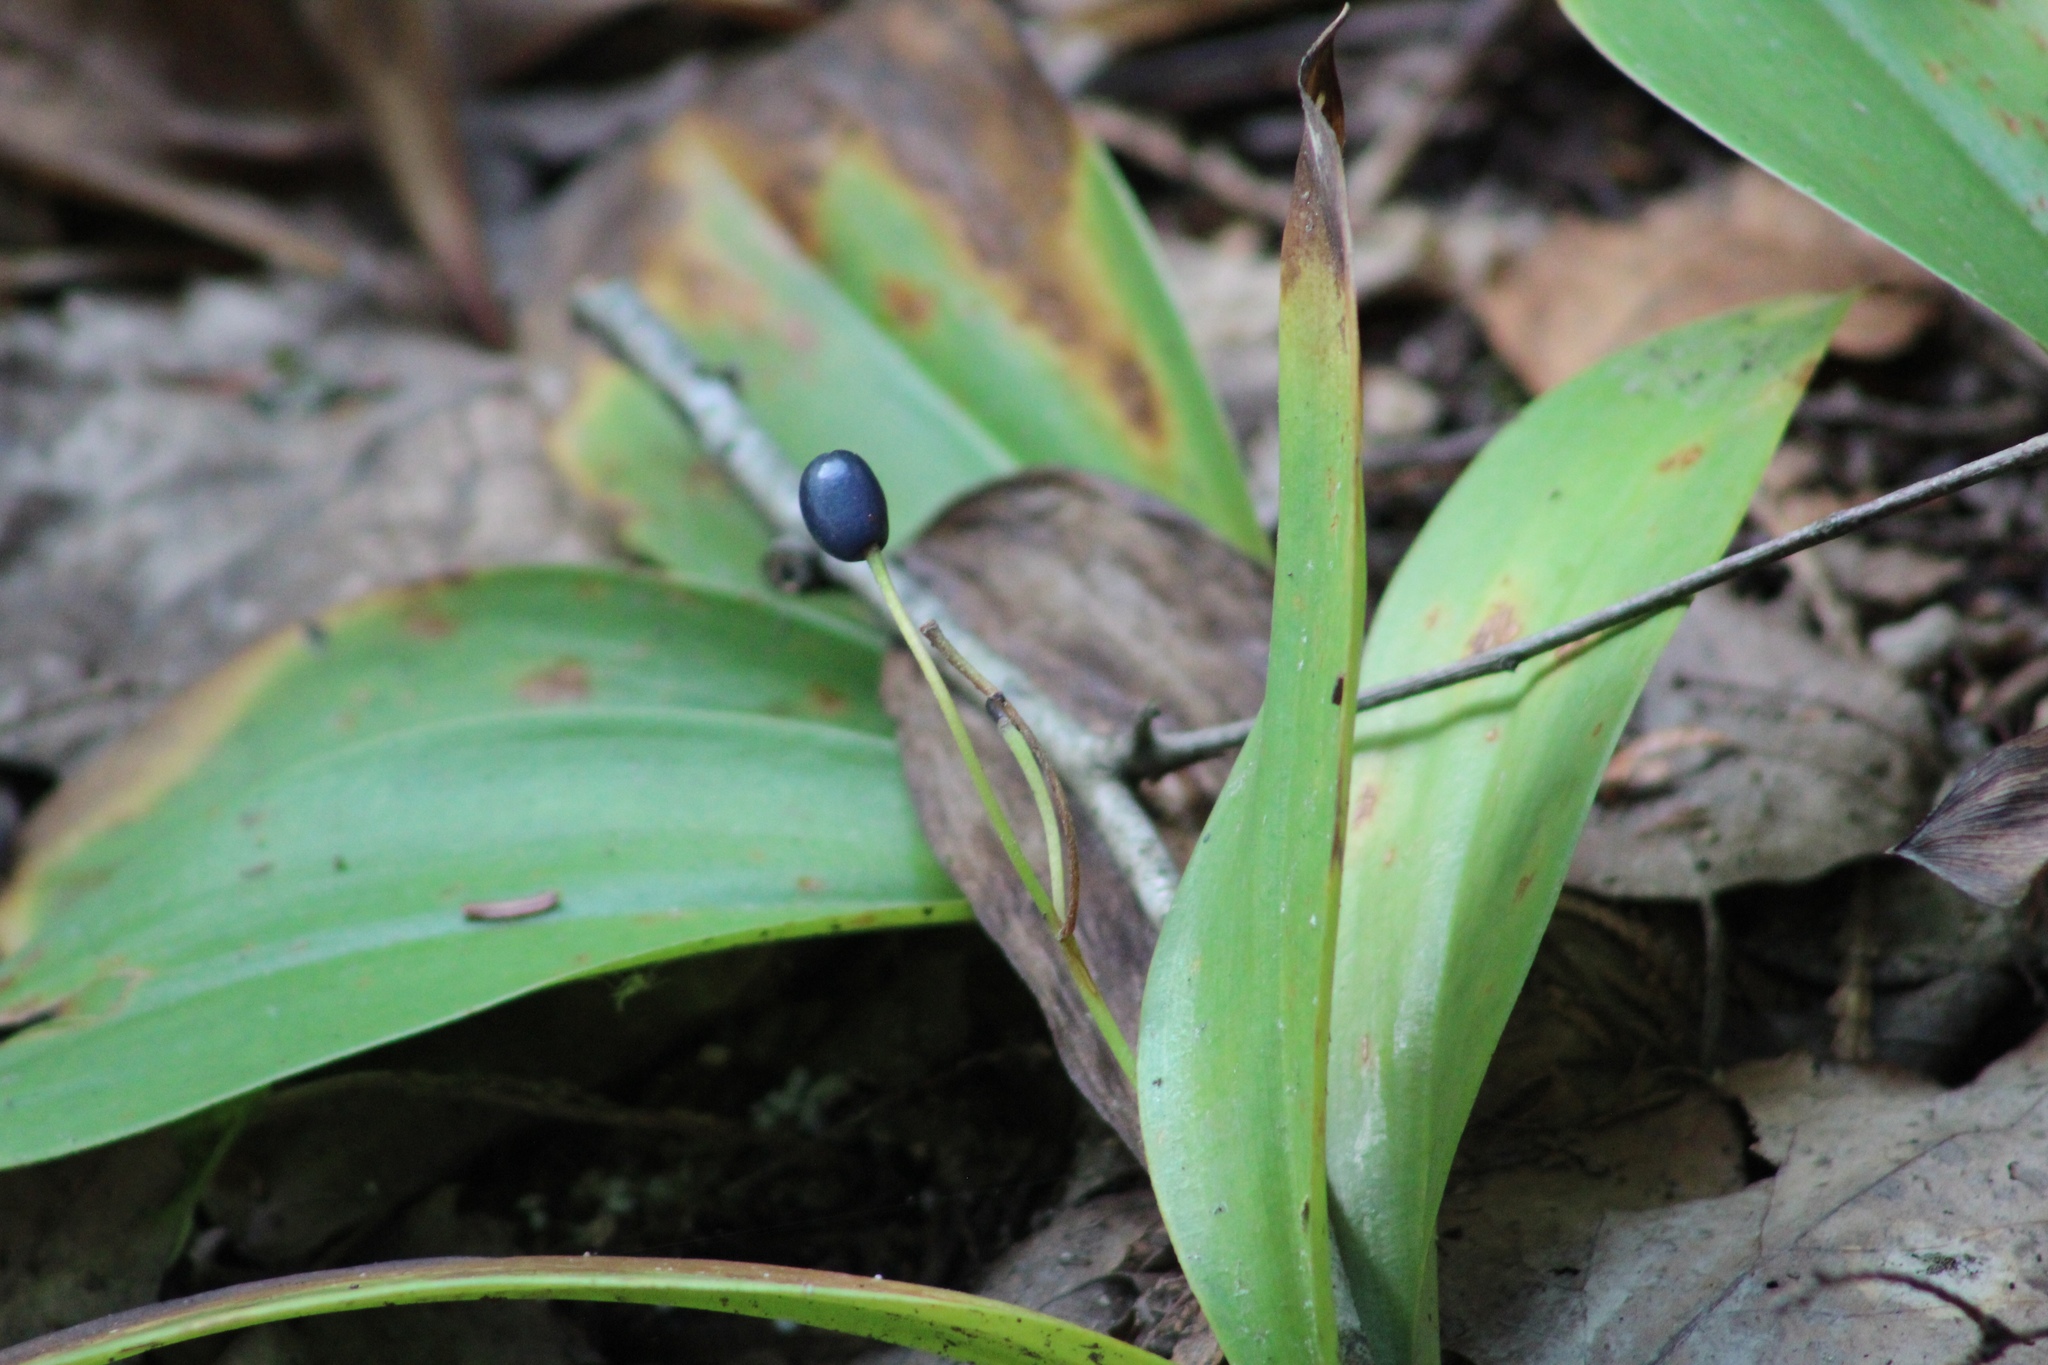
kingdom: Plantae
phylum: Tracheophyta
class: Liliopsida
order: Liliales
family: Liliaceae
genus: Clintonia
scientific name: Clintonia borealis
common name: Yellow clintonia
